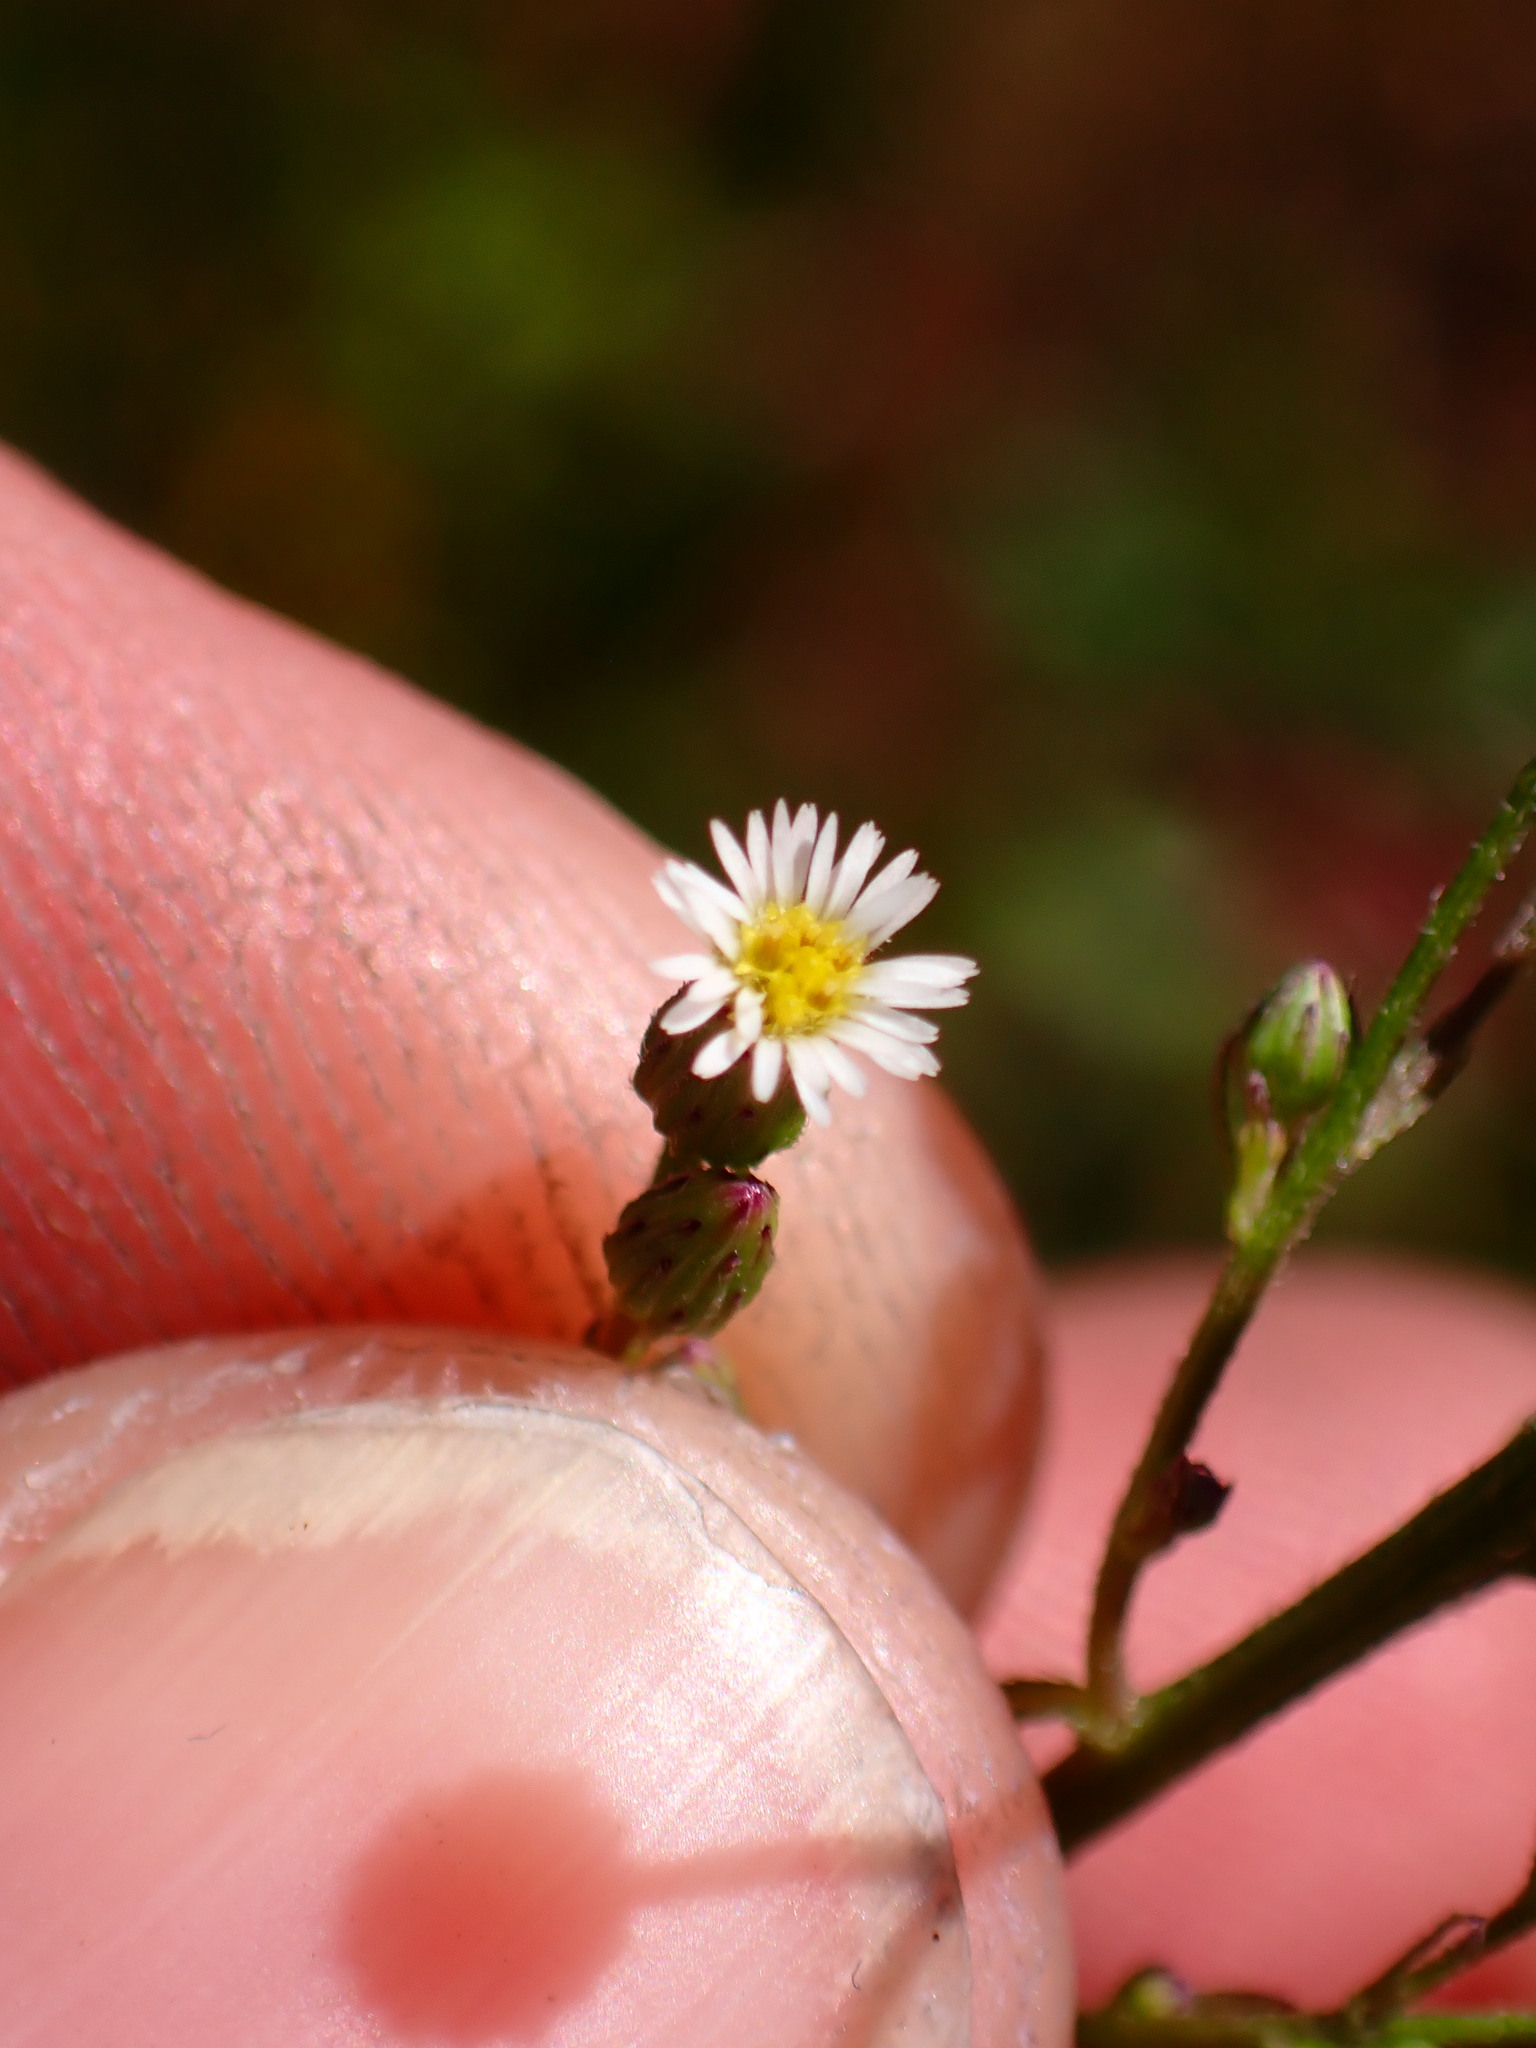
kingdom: Plantae
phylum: Tracheophyta
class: Magnoliopsida
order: Asterales
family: Asteraceae
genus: Erigeron
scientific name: Erigeron canadensis
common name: Canadian fleabane
